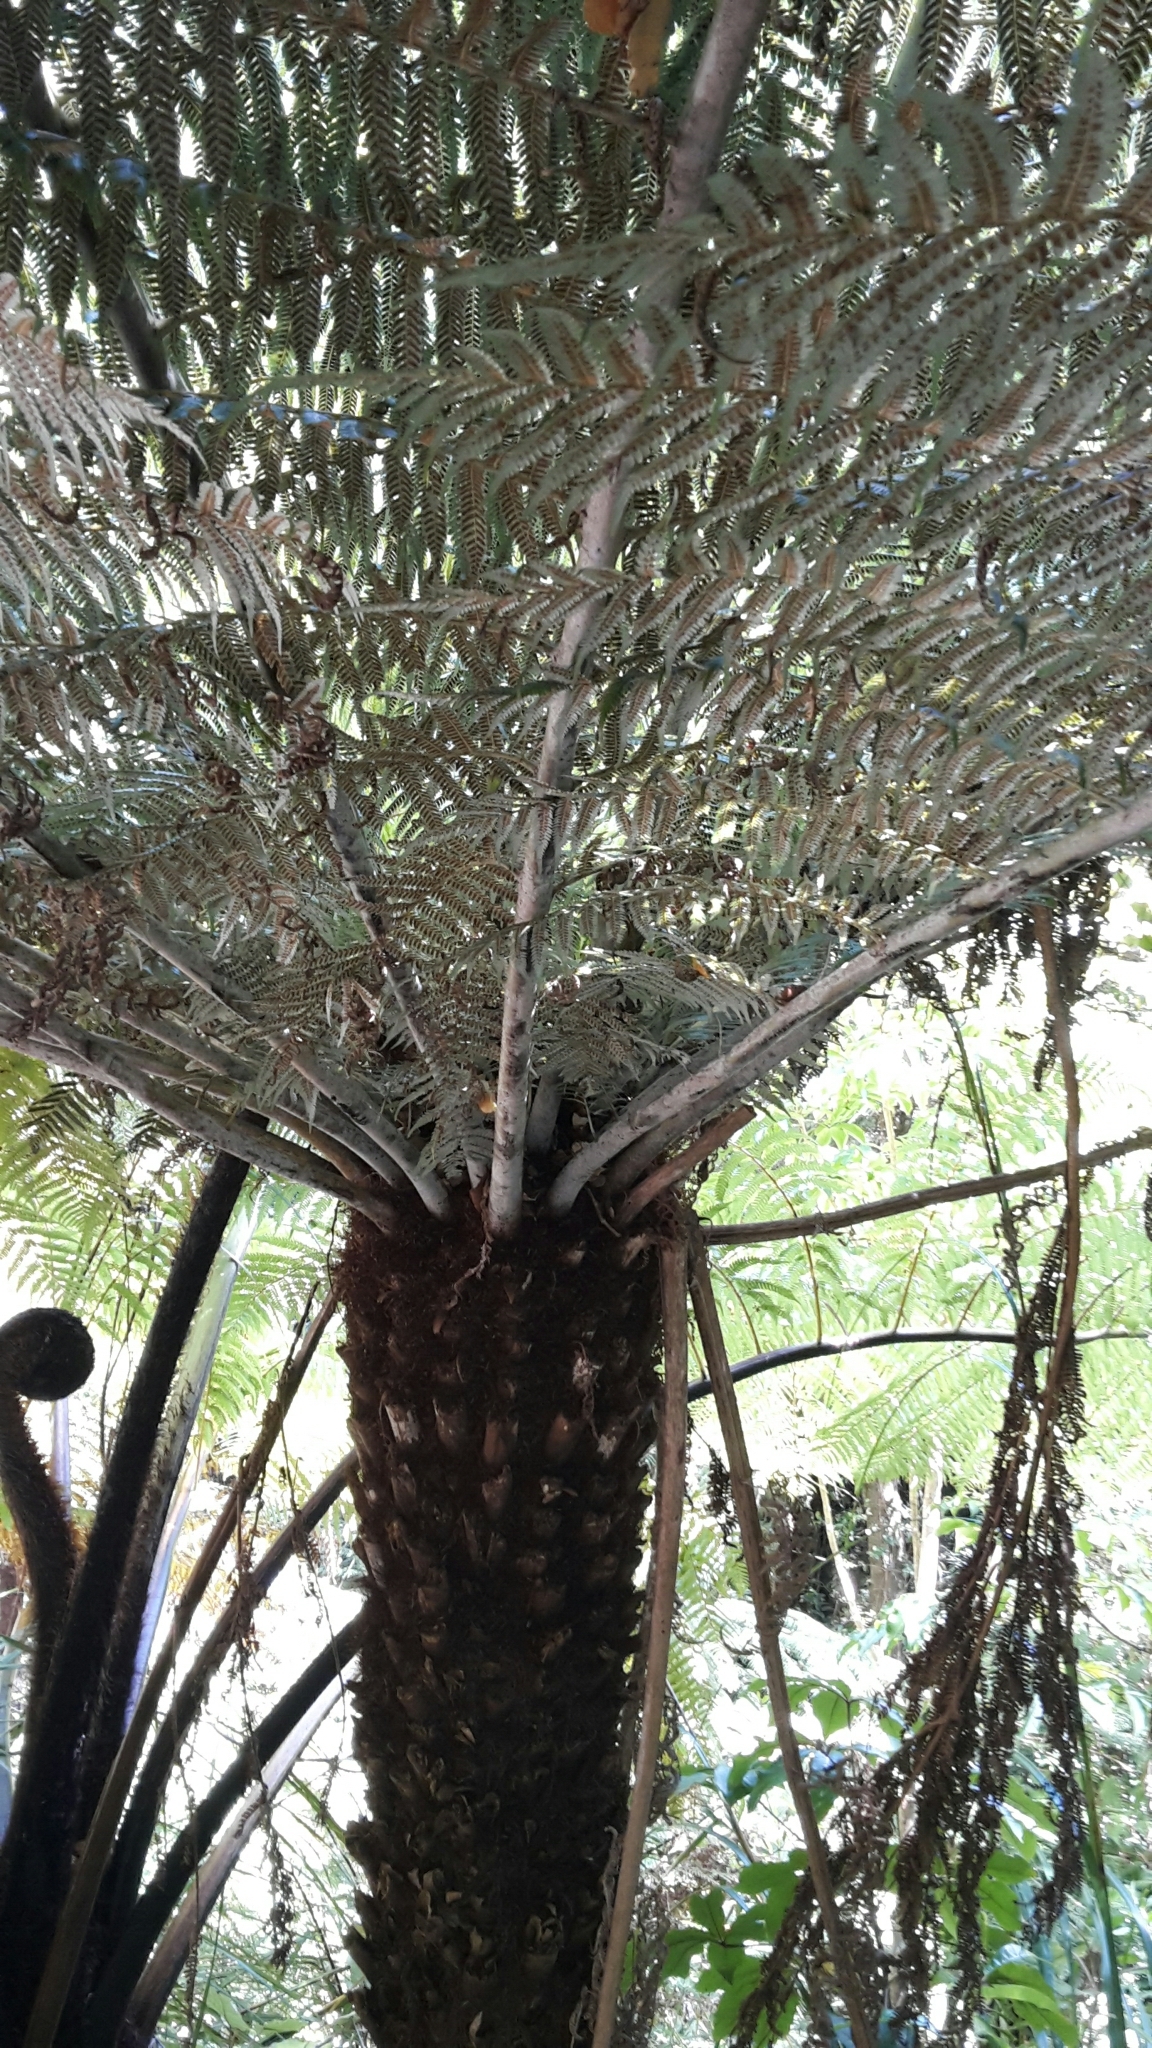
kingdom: Plantae
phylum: Tracheophyta
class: Polypodiopsida
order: Cyatheales
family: Cyatheaceae
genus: Alsophila
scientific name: Alsophila dealbata
